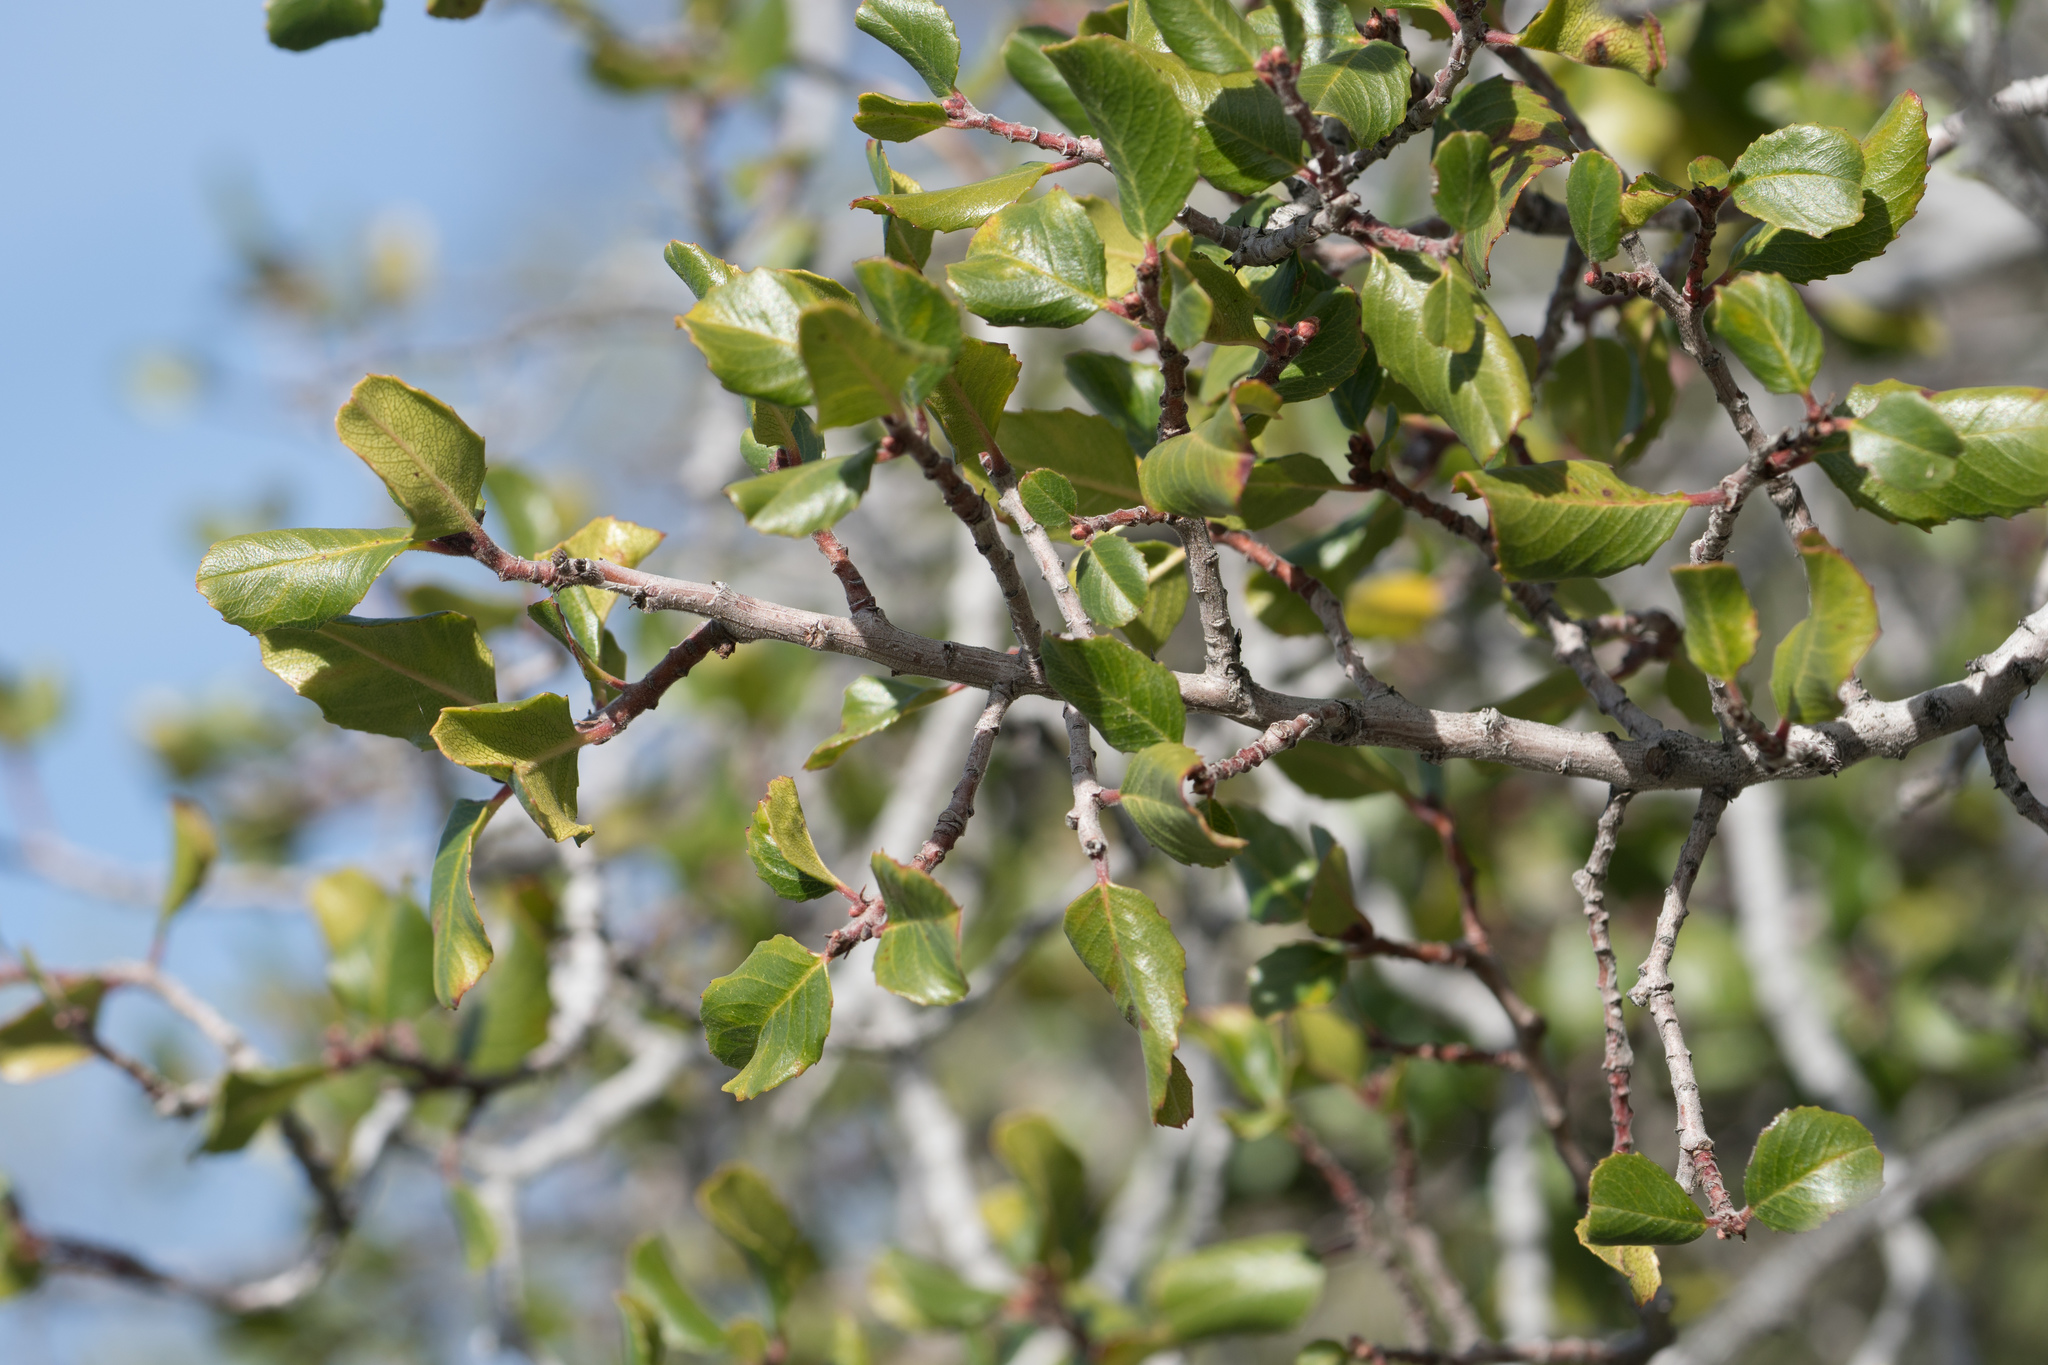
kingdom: Plantae
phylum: Tracheophyta
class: Magnoliopsida
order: Rosales
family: Rhamnaceae
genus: Endotropis
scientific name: Endotropis crocea
